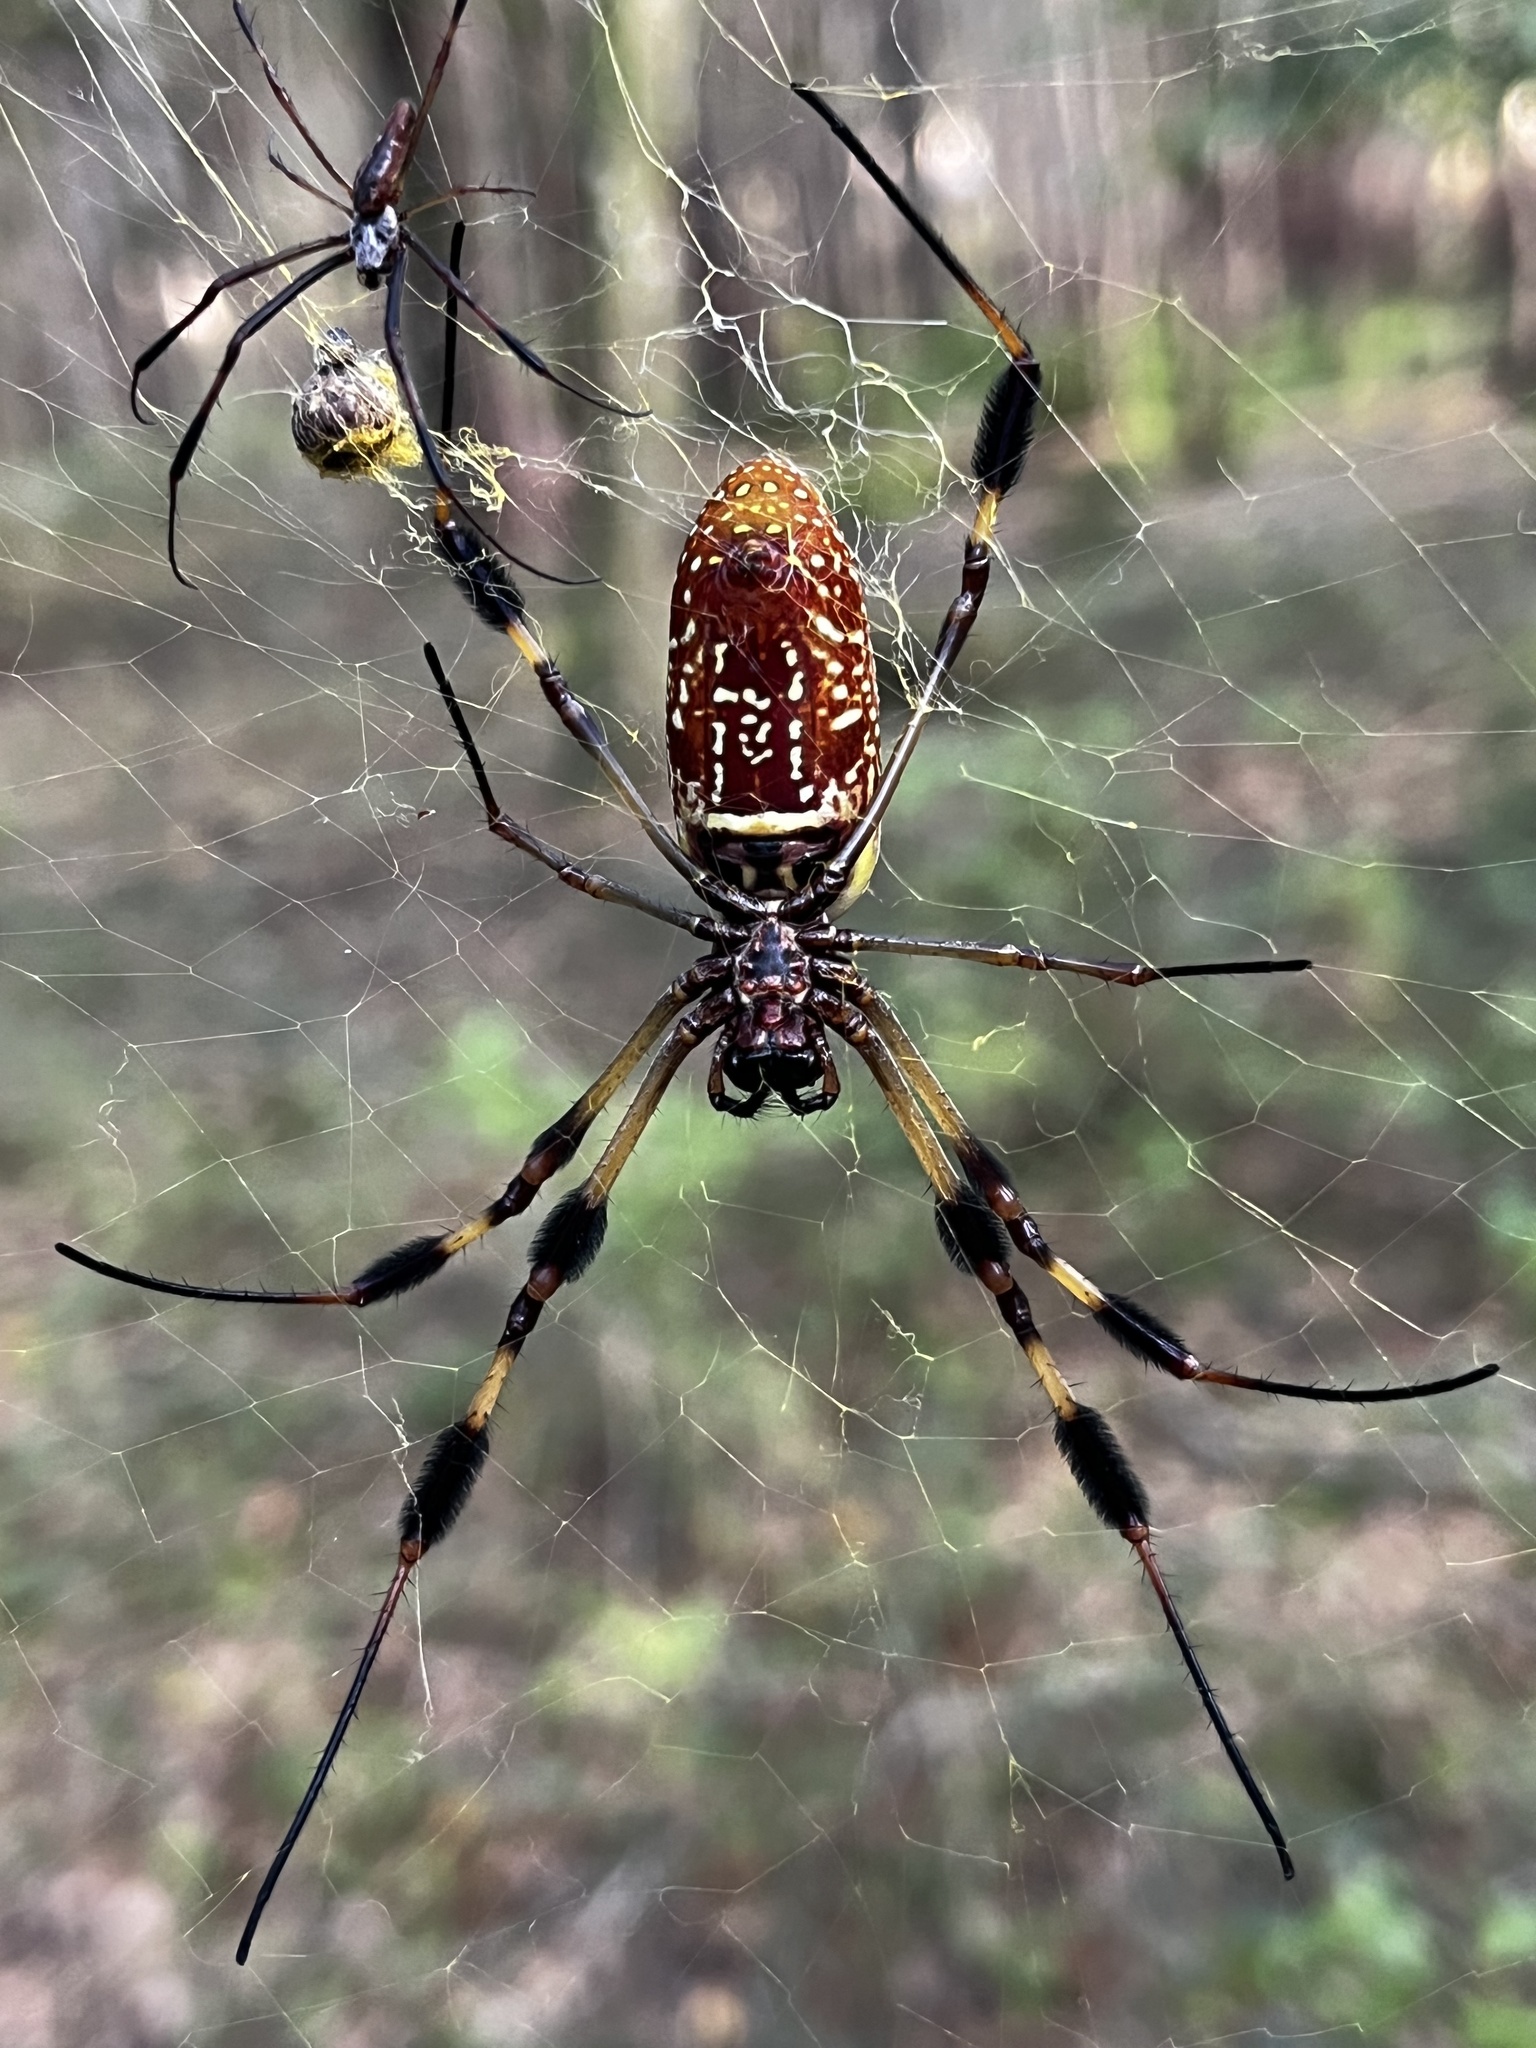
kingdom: Animalia
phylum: Arthropoda
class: Arachnida
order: Araneae
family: Araneidae
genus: Trichonephila
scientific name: Trichonephila clavipes
